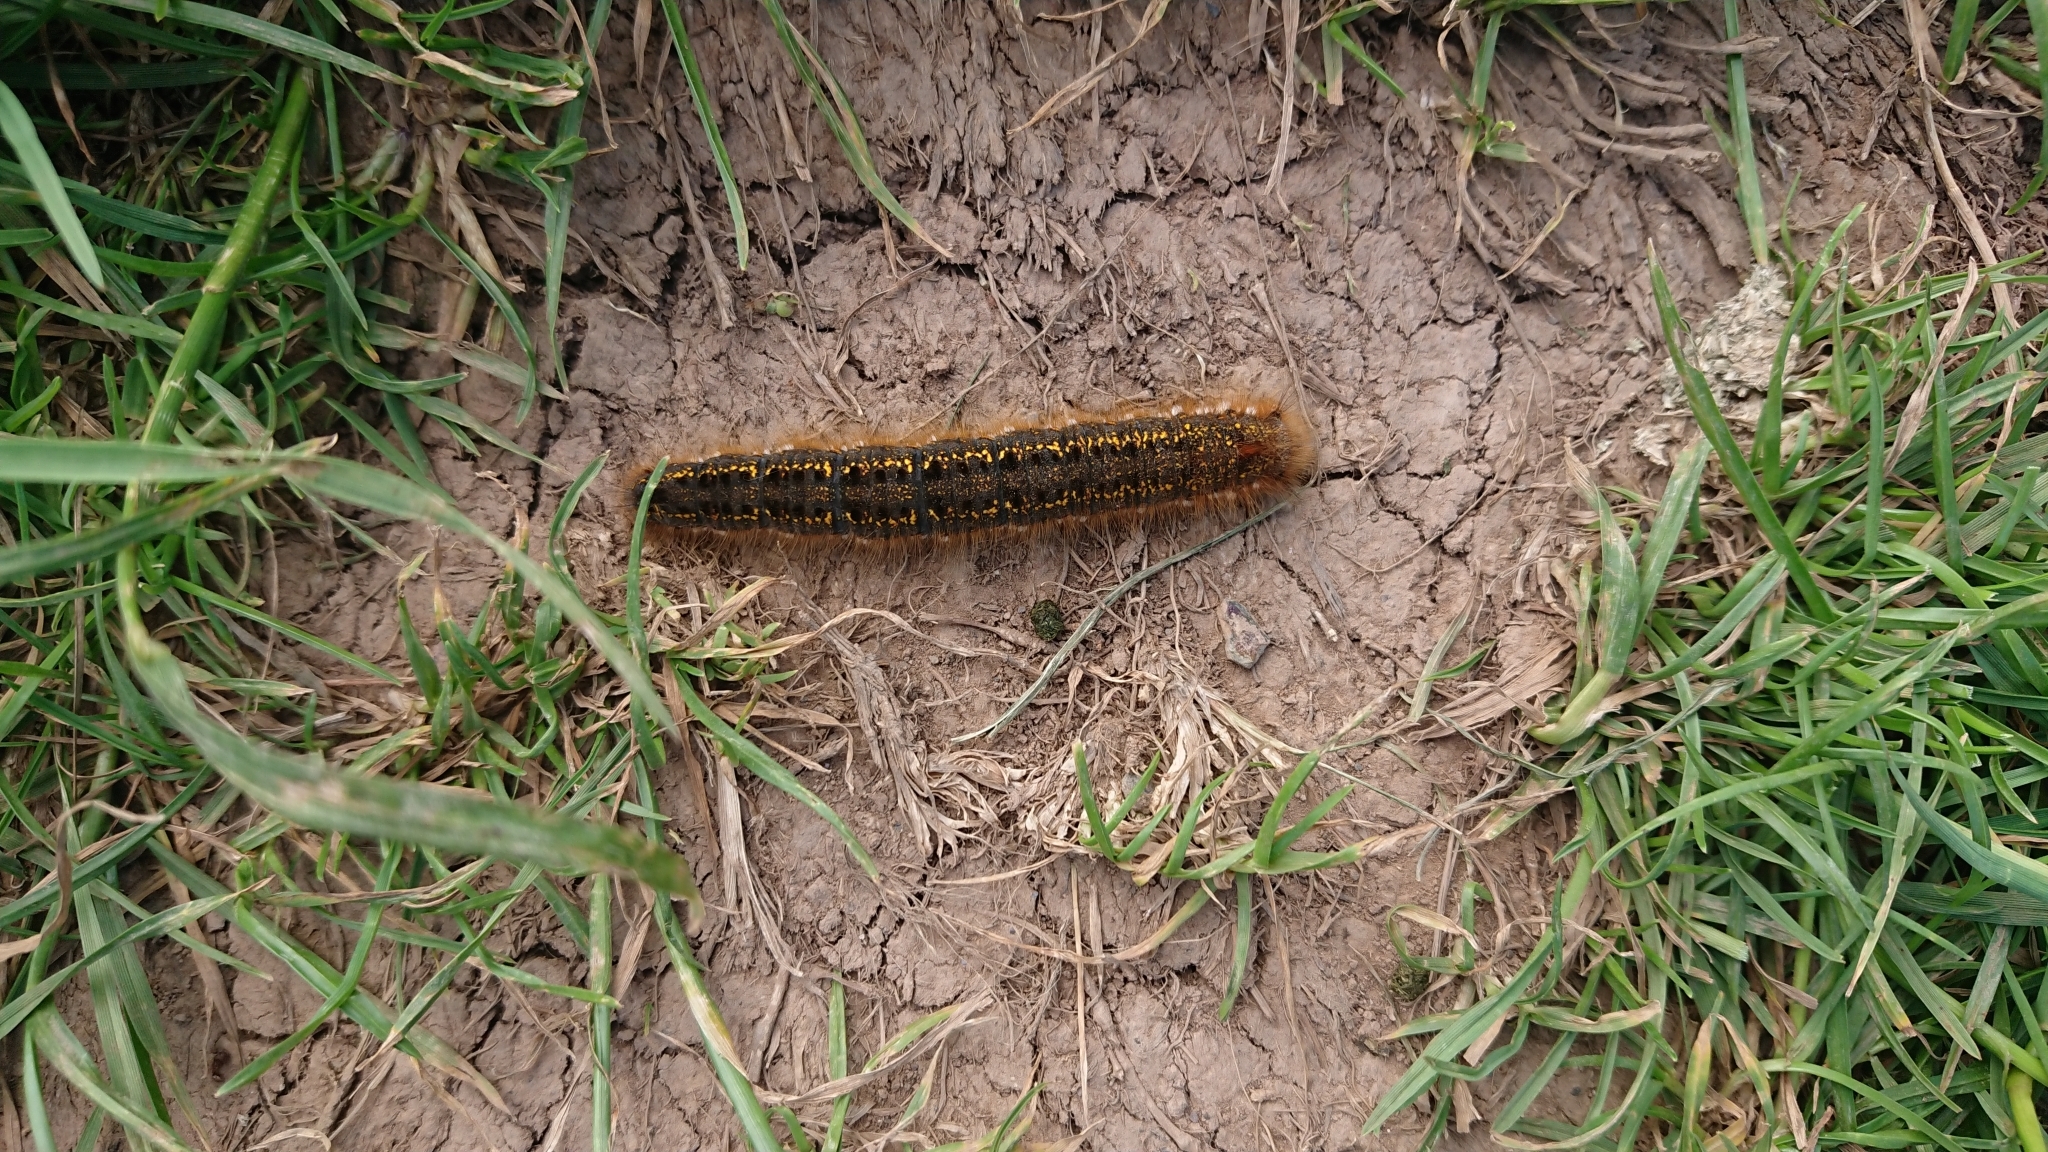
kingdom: Animalia
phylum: Arthropoda
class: Insecta
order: Lepidoptera
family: Lasiocampidae
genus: Euthrix
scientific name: Euthrix potatoria
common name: Drinker
